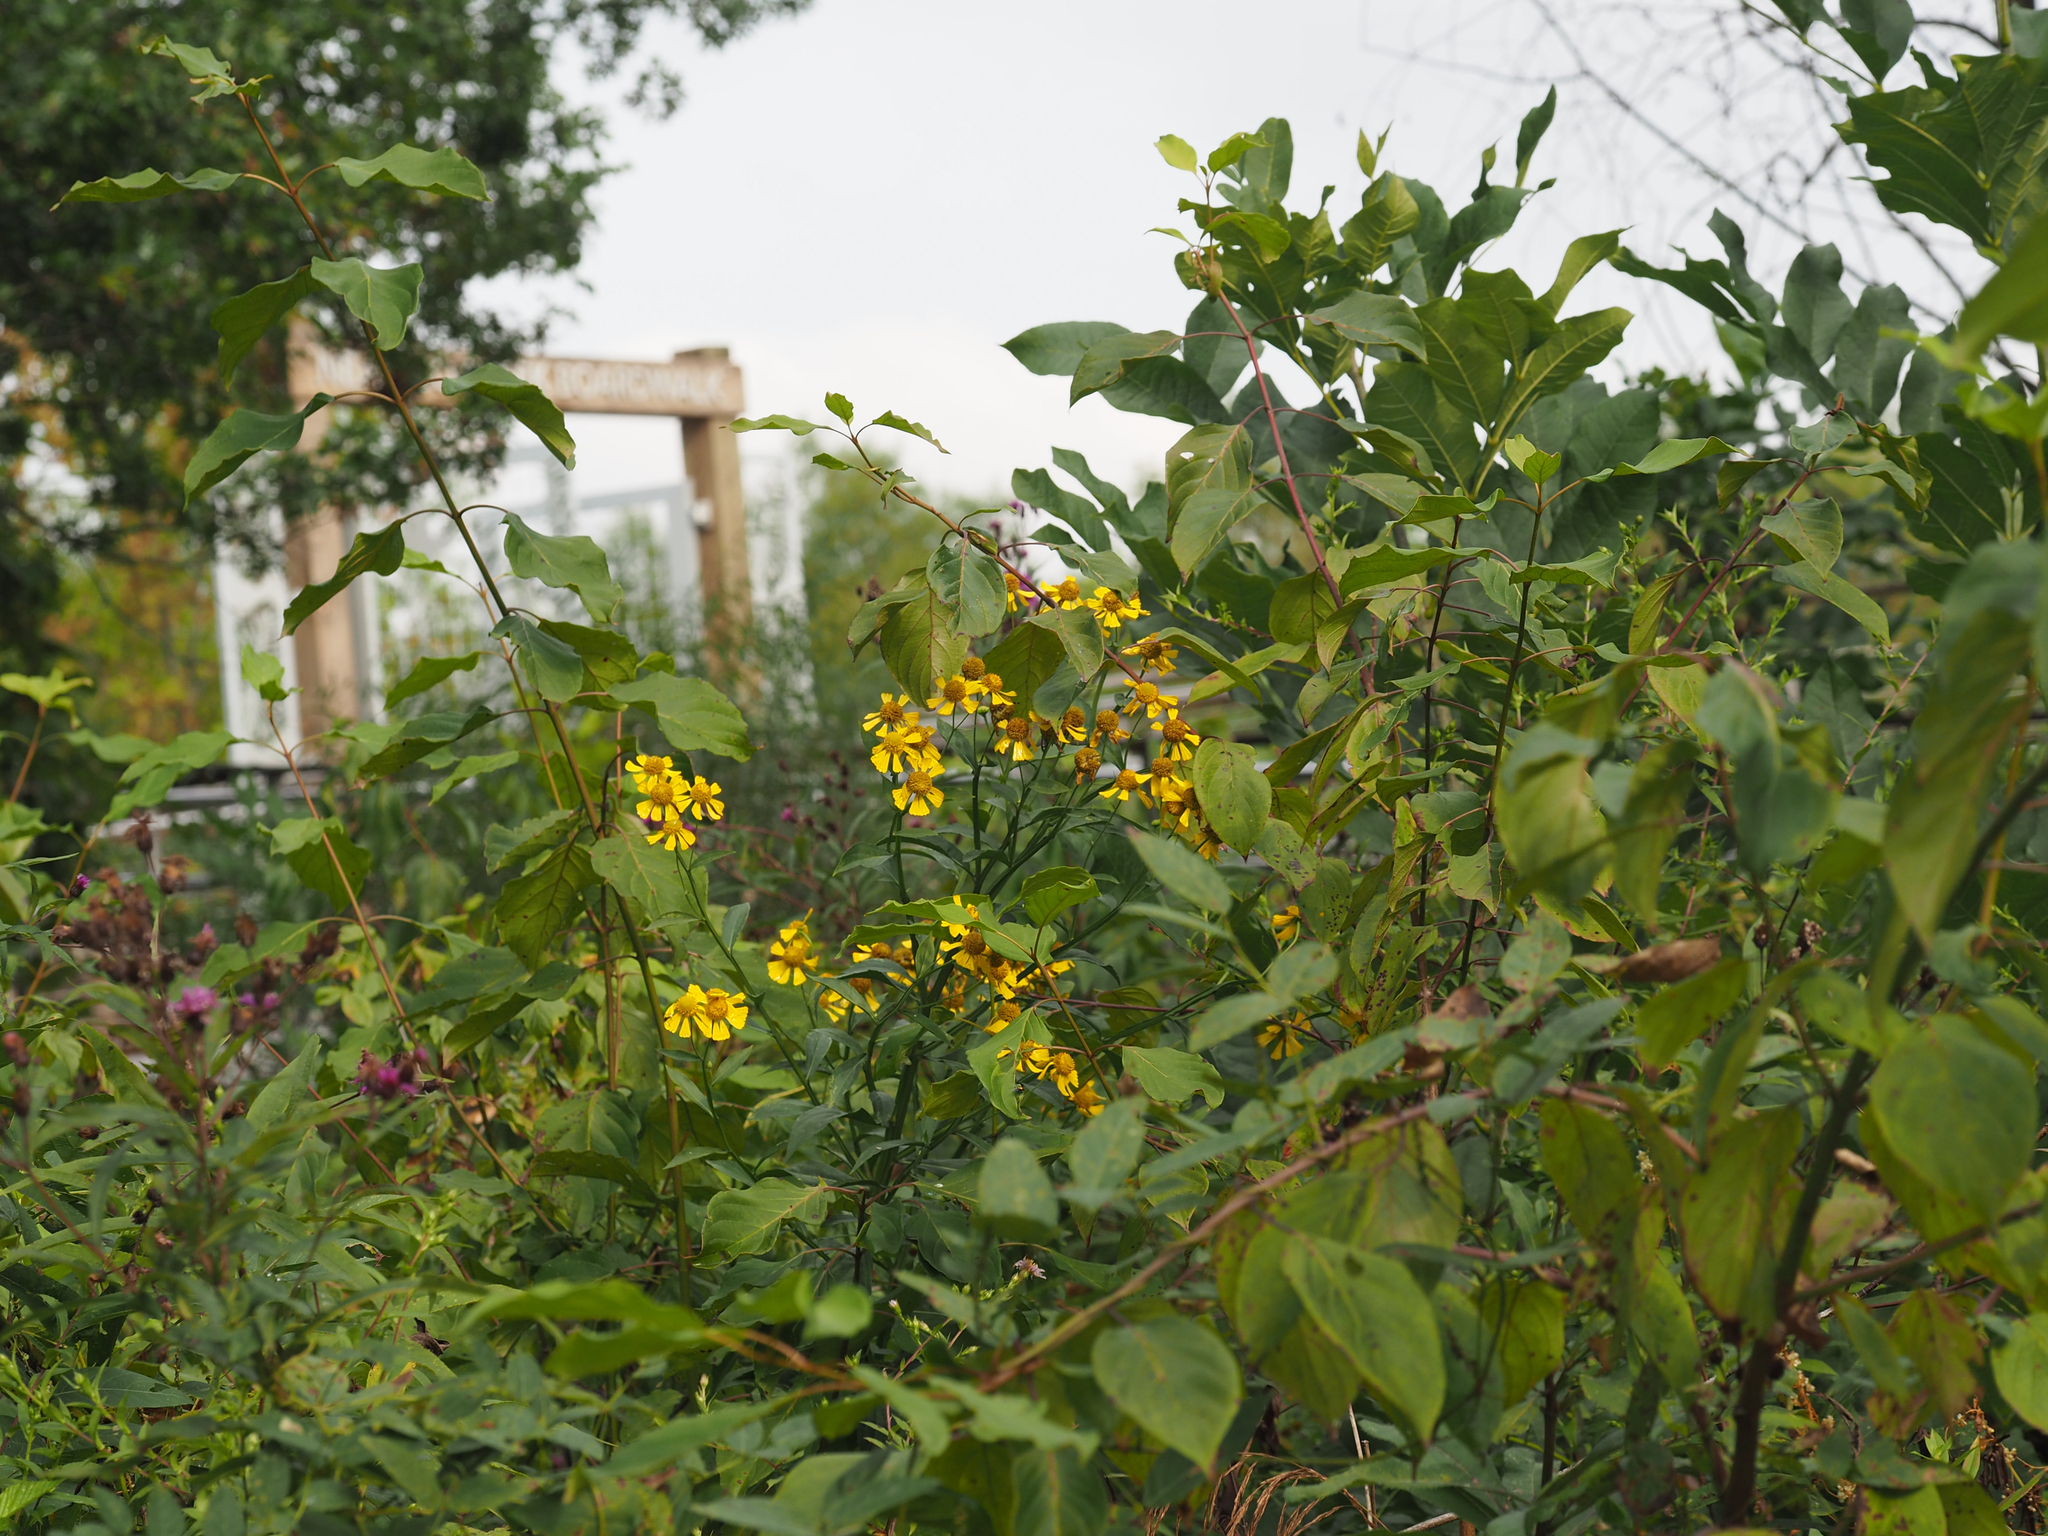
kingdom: Plantae
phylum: Tracheophyta
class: Magnoliopsida
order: Asterales
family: Asteraceae
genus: Helenium
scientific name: Helenium autumnale
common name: Sneezeweed
